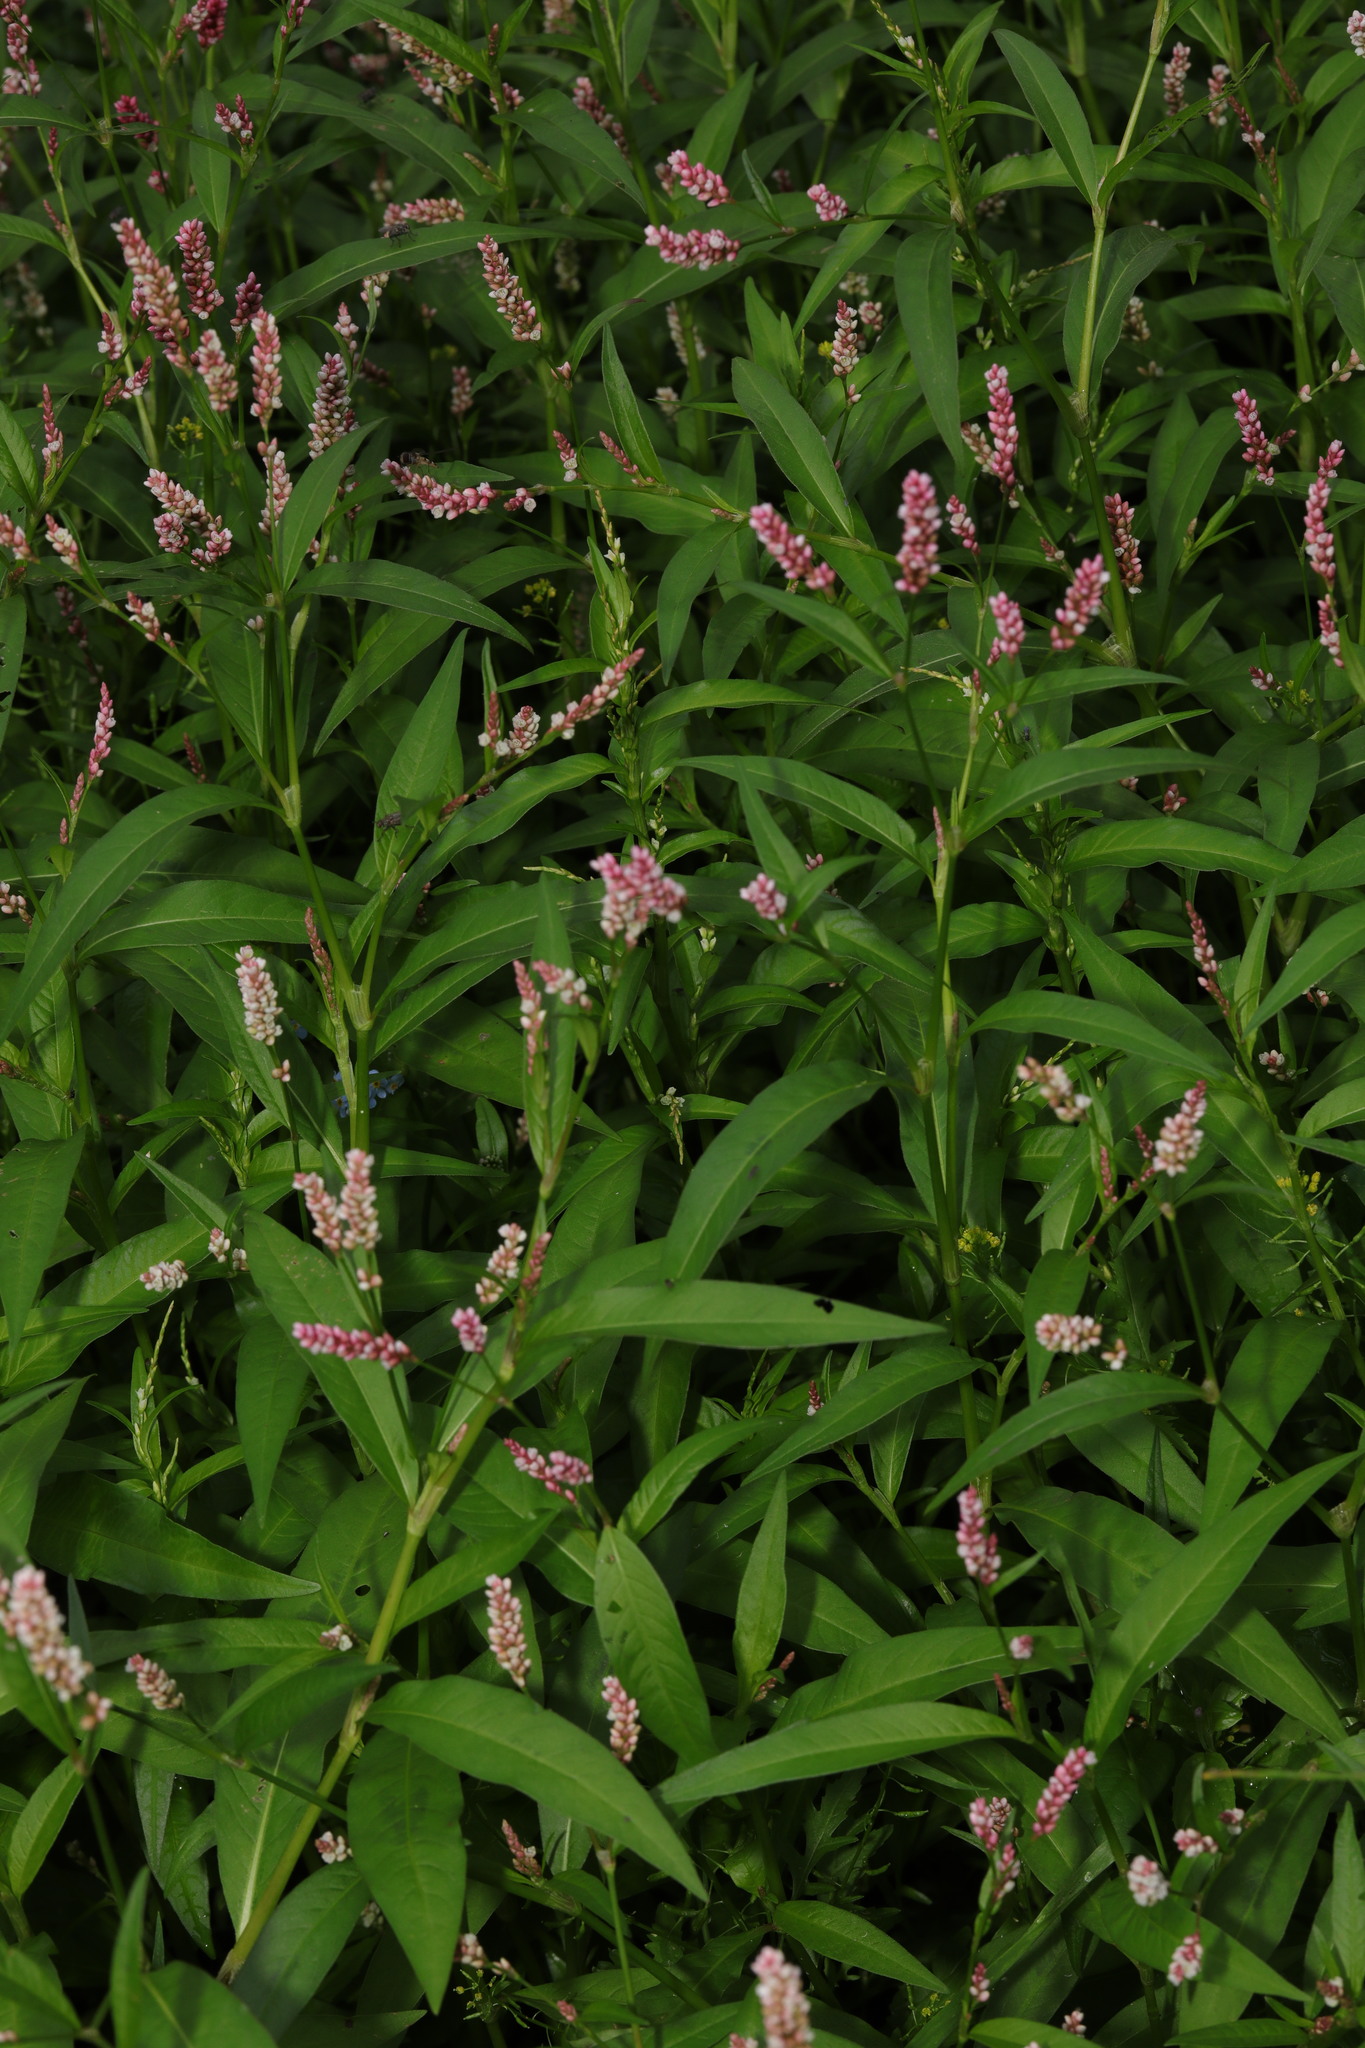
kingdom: Plantae
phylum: Tracheophyta
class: Magnoliopsida
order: Caryophyllales
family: Polygonaceae
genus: Persicaria
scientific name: Persicaria maculosa
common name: Redshank
